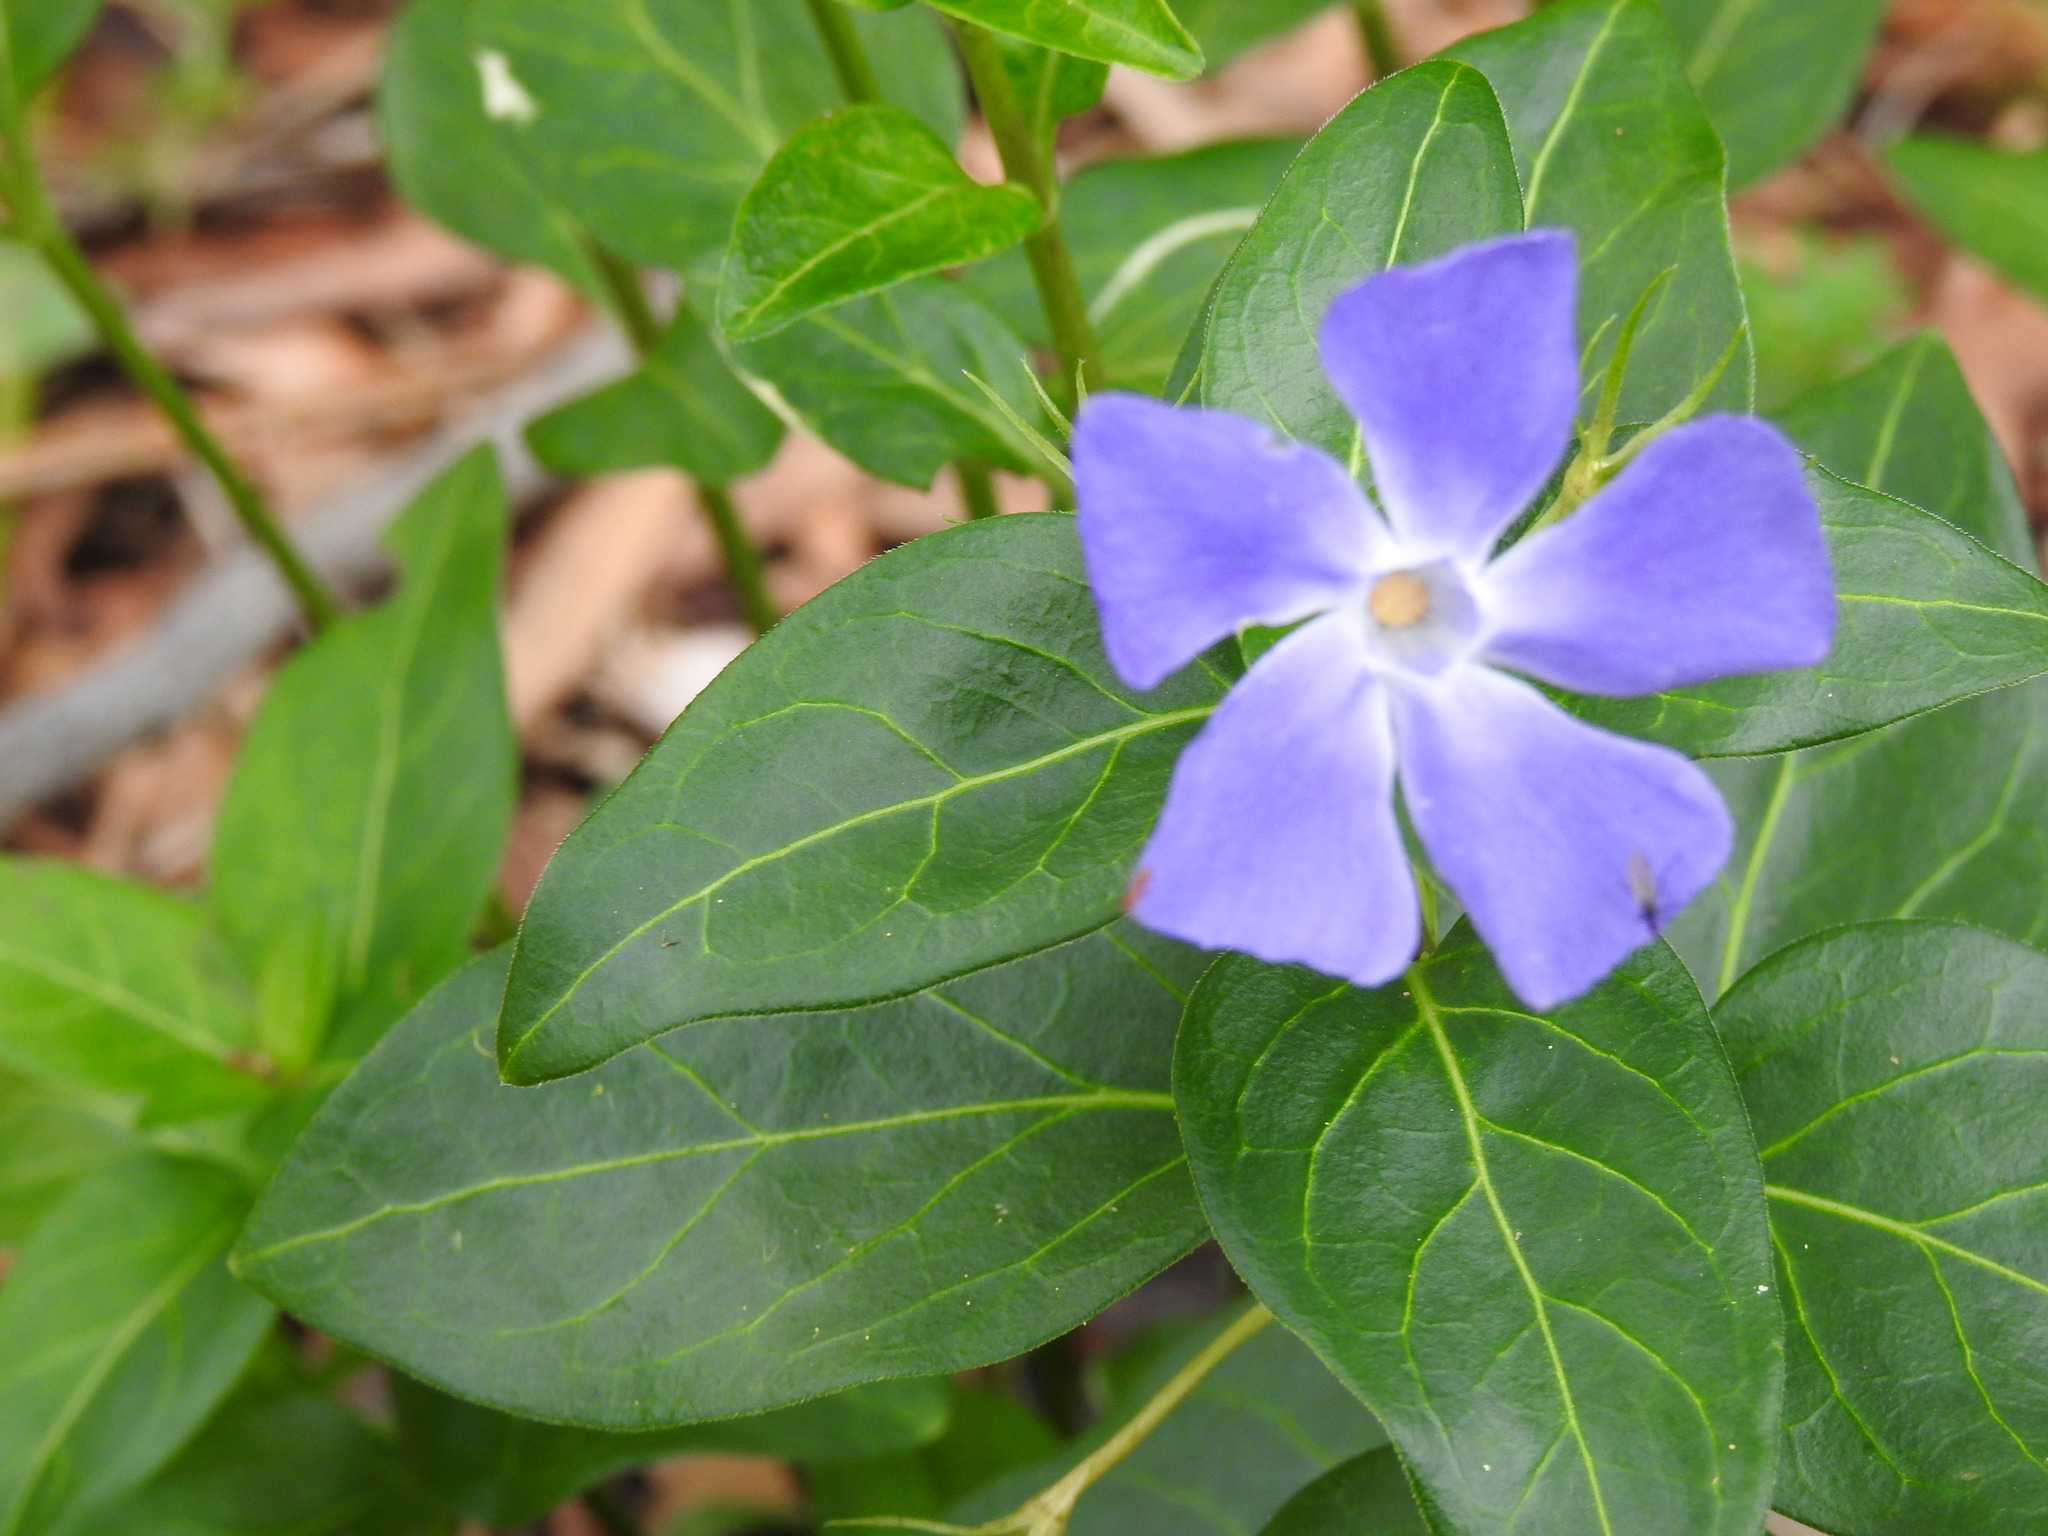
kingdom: Plantae
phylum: Tracheophyta
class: Magnoliopsida
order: Gentianales
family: Apocynaceae
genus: Vinca
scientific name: Vinca major
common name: Greater periwinkle
